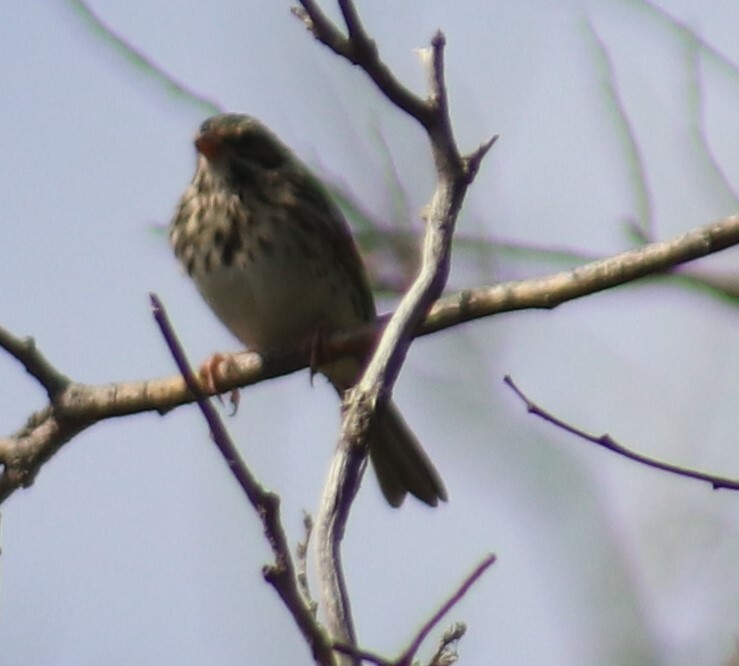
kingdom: Animalia
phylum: Chordata
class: Aves
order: Passeriformes
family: Passerellidae
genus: Melospiza
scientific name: Melospiza melodia
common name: Song sparrow
